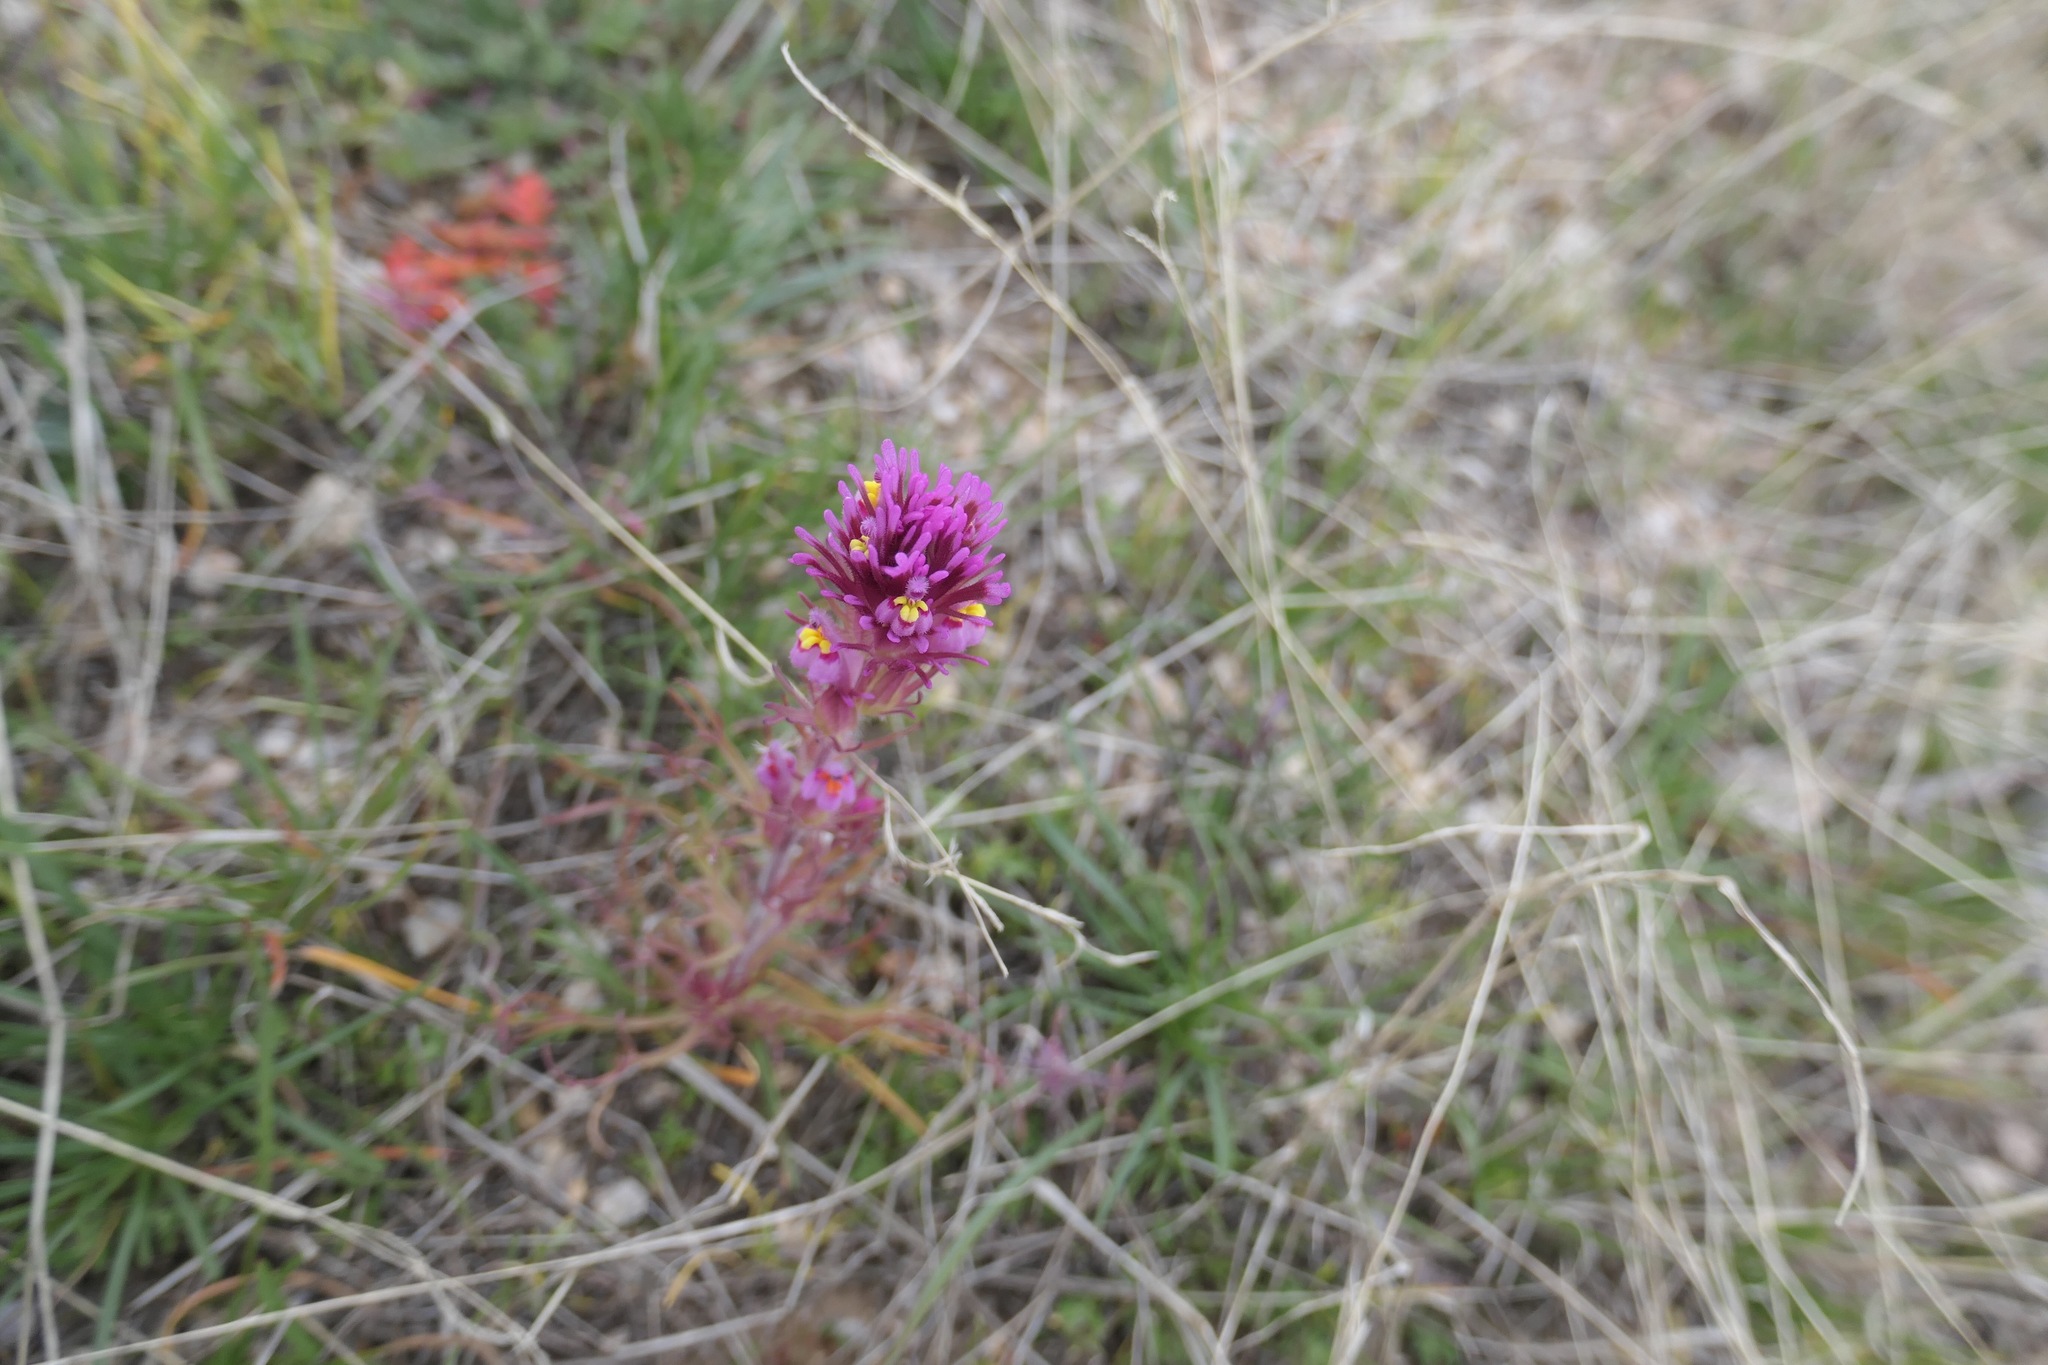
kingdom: Plantae
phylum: Tracheophyta
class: Magnoliopsida
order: Lamiales
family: Orobanchaceae
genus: Castilleja
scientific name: Castilleja exserta
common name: Purple owl-clover
